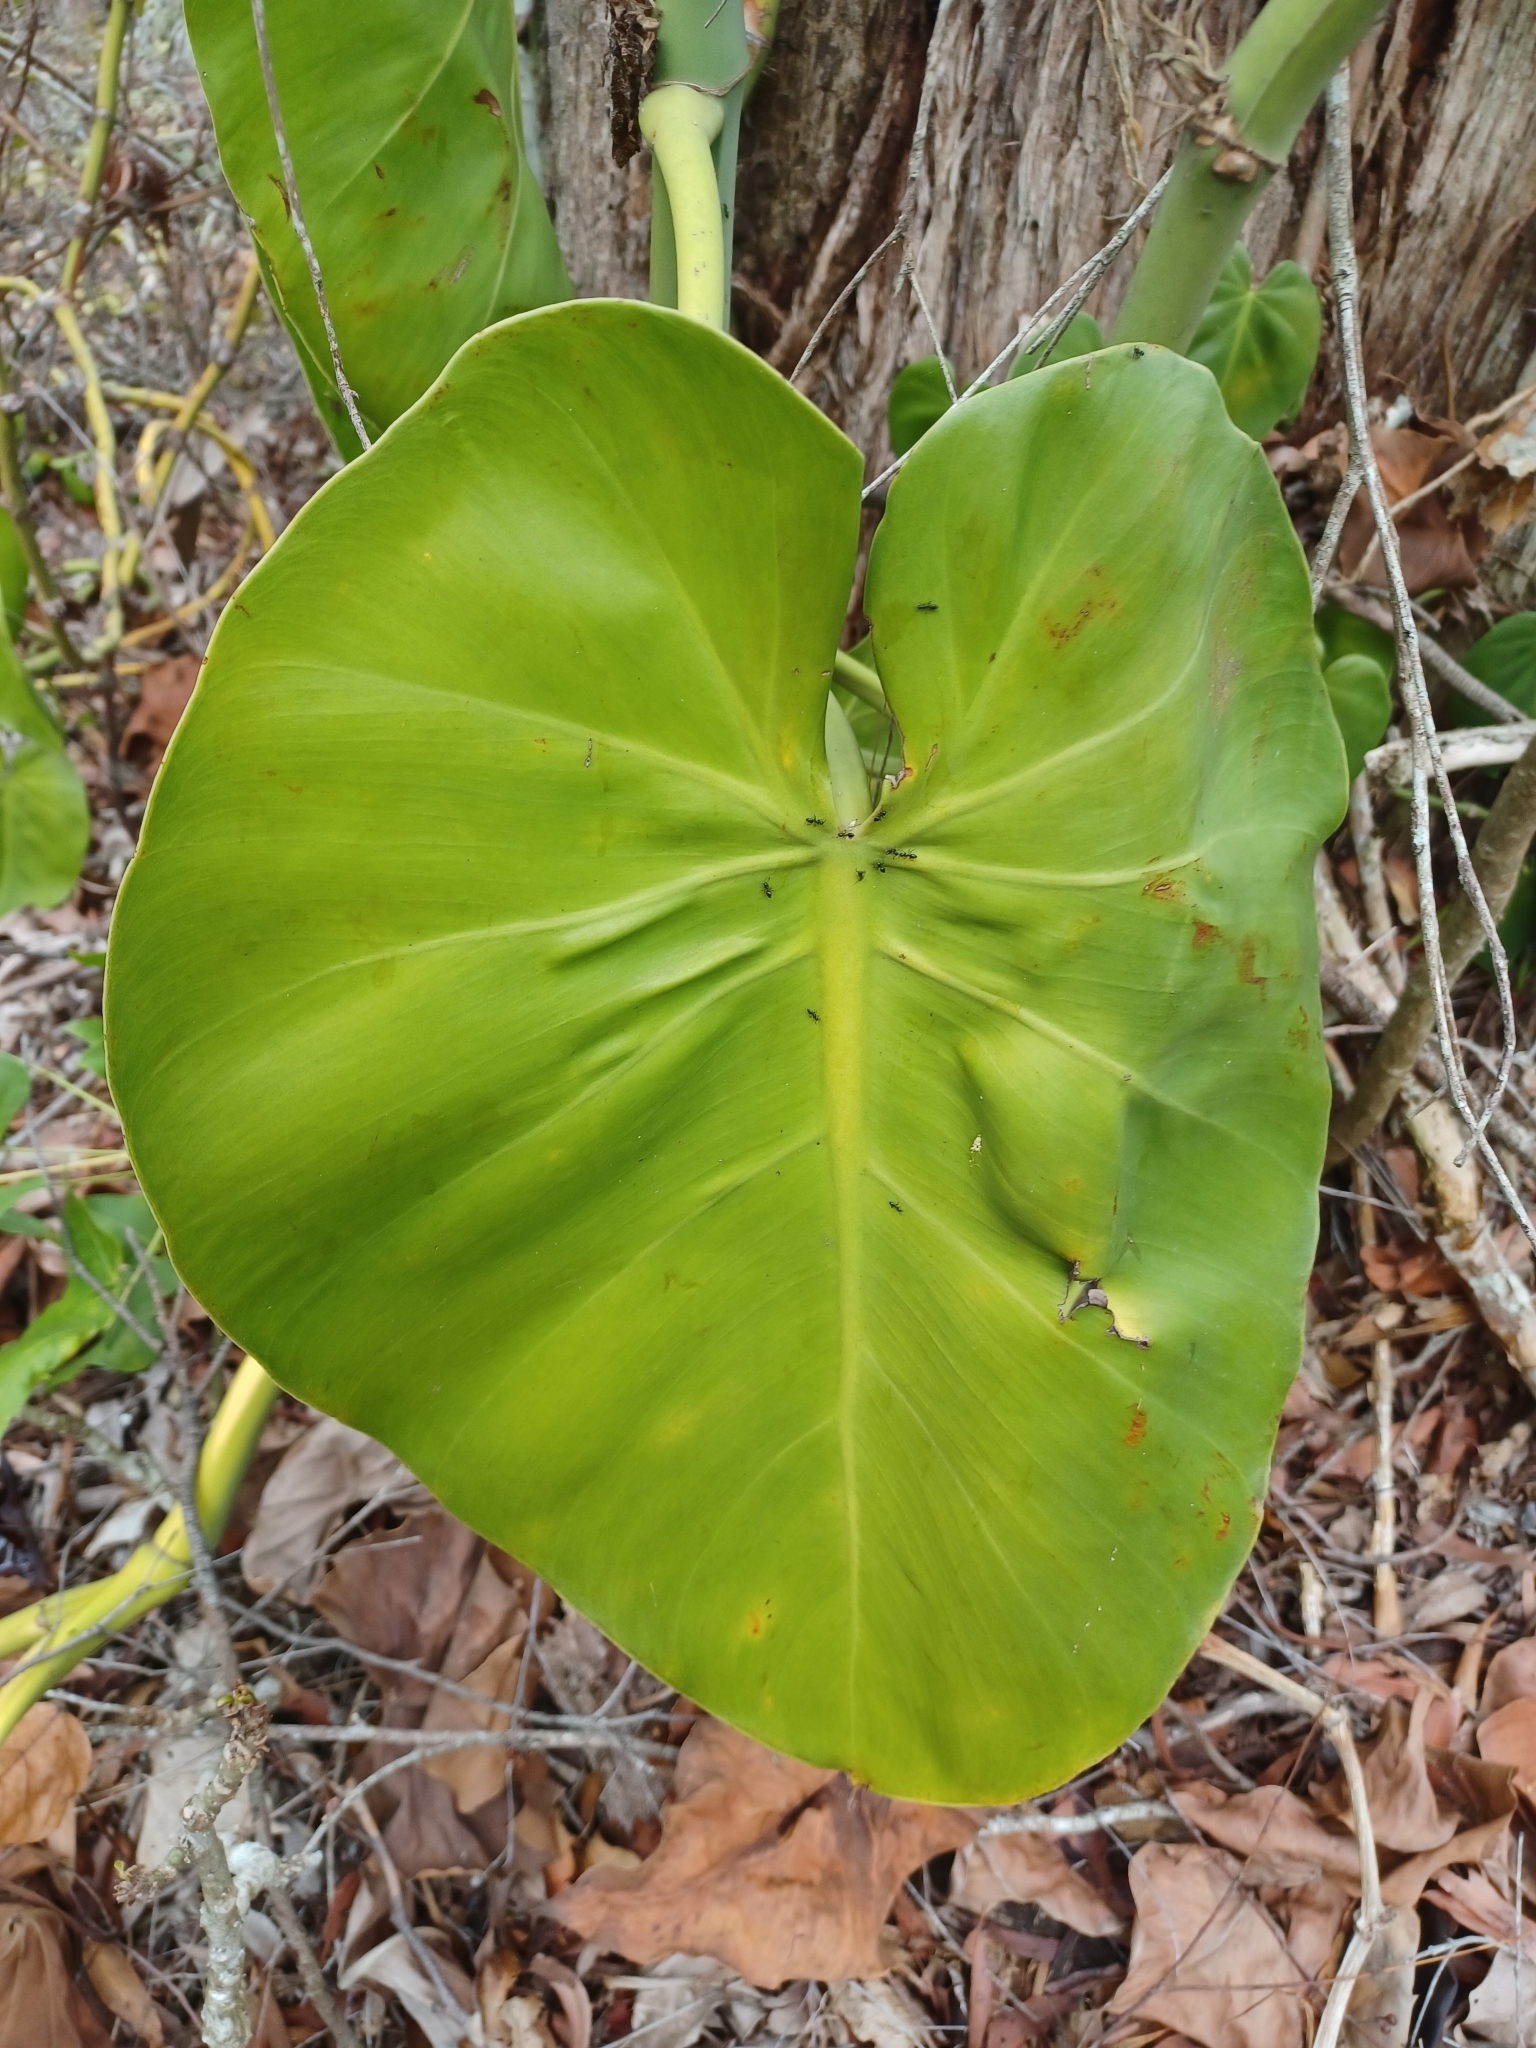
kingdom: Plantae
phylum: Tracheophyta
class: Liliopsida
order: Alismatales
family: Araceae
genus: Philodendron
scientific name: Philodendron hederaceum
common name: Vilevine
